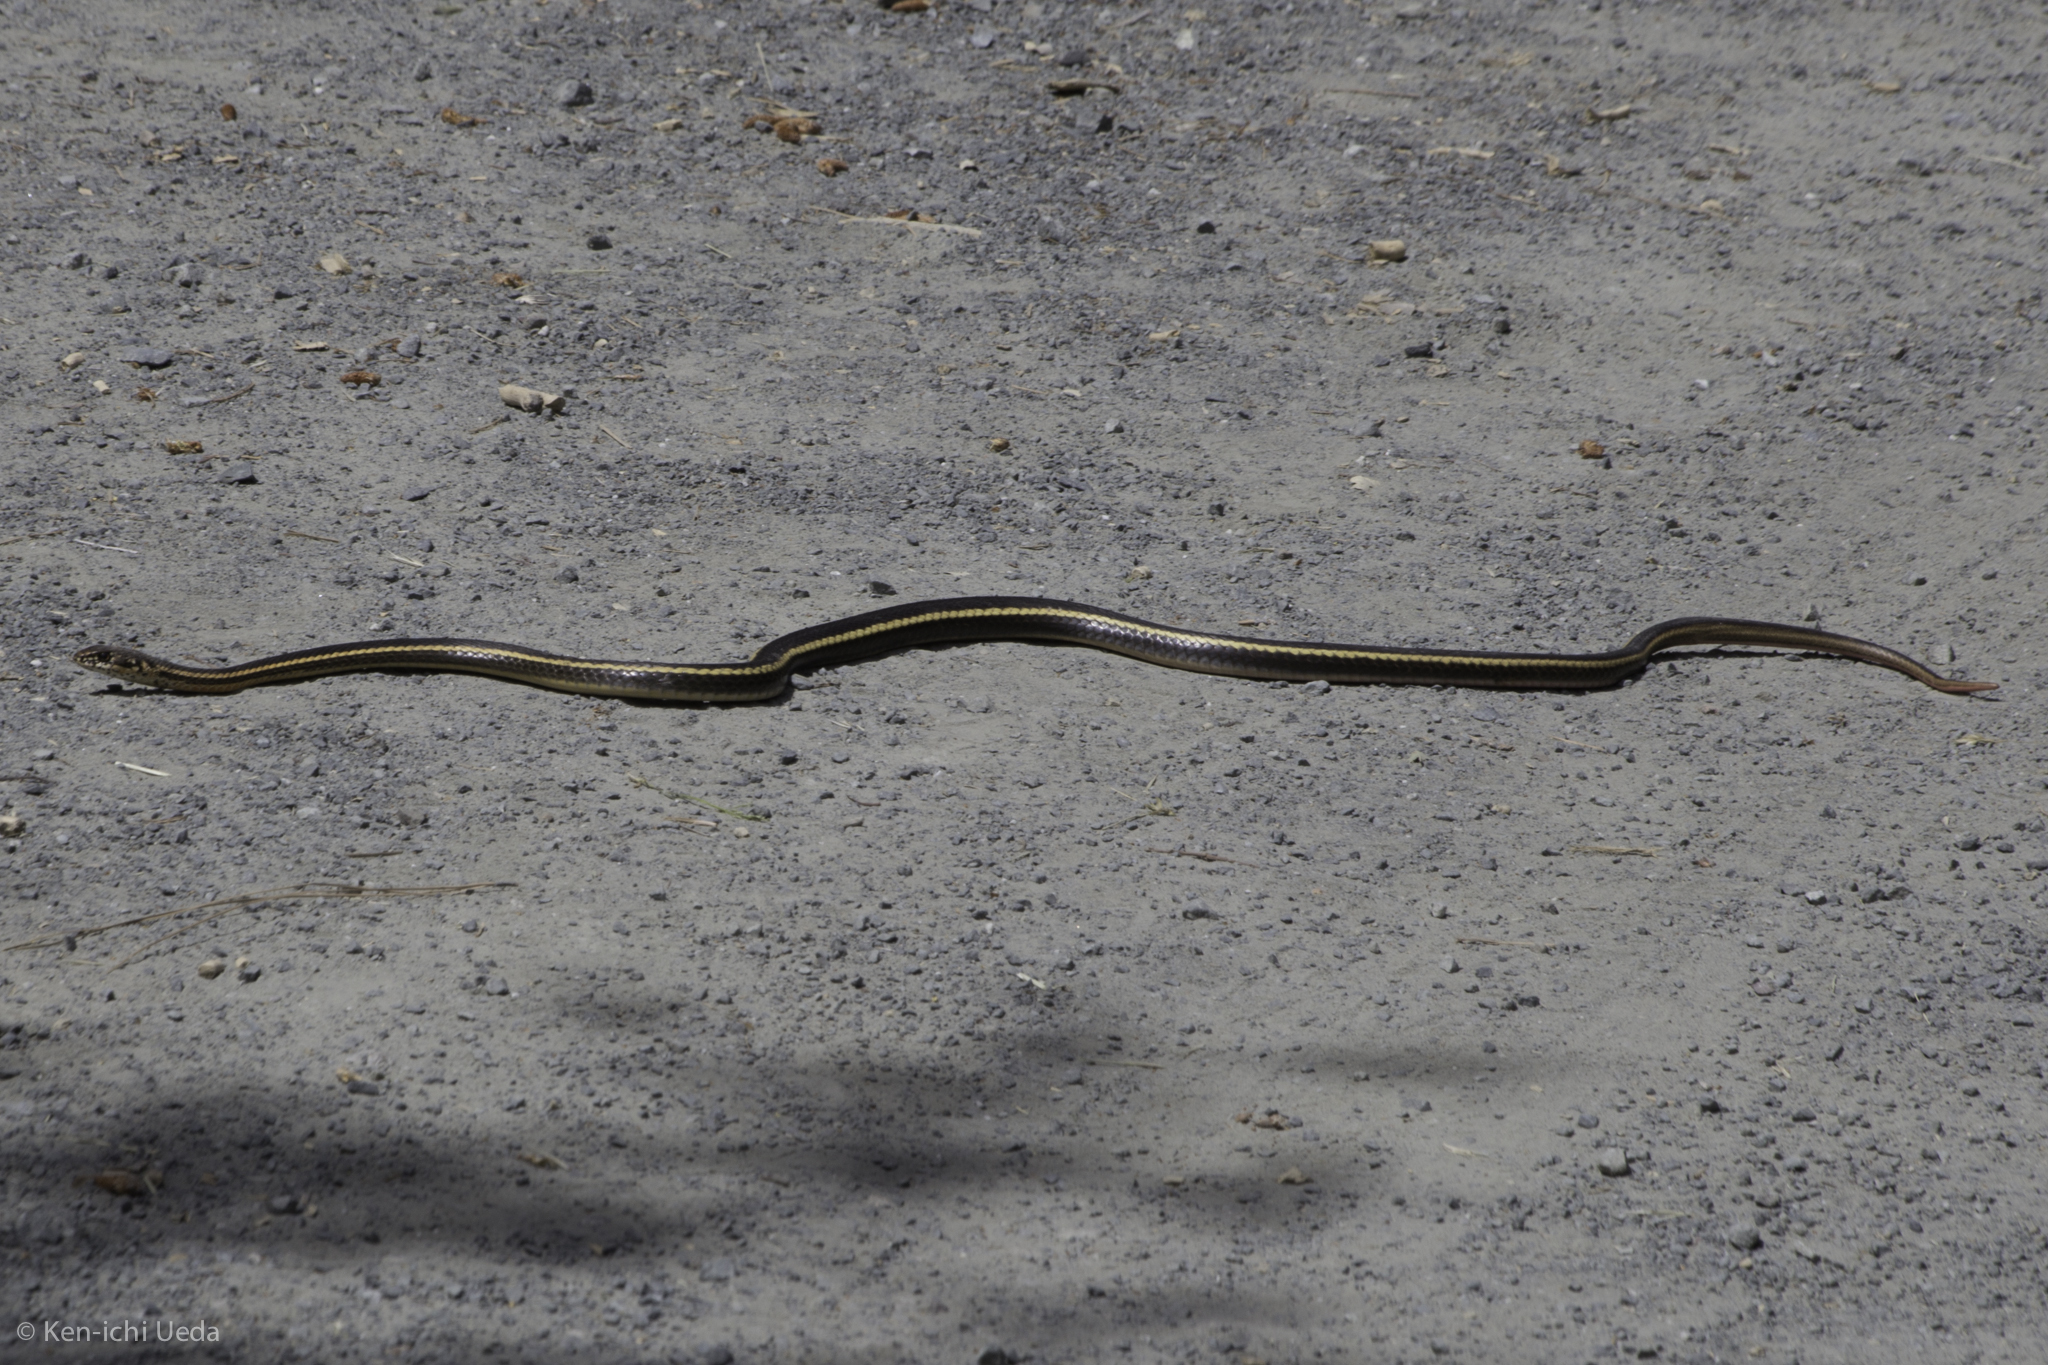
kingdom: Animalia
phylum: Chordata
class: Squamata
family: Colubridae
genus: Masticophis
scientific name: Masticophis lateralis
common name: Striped racer
